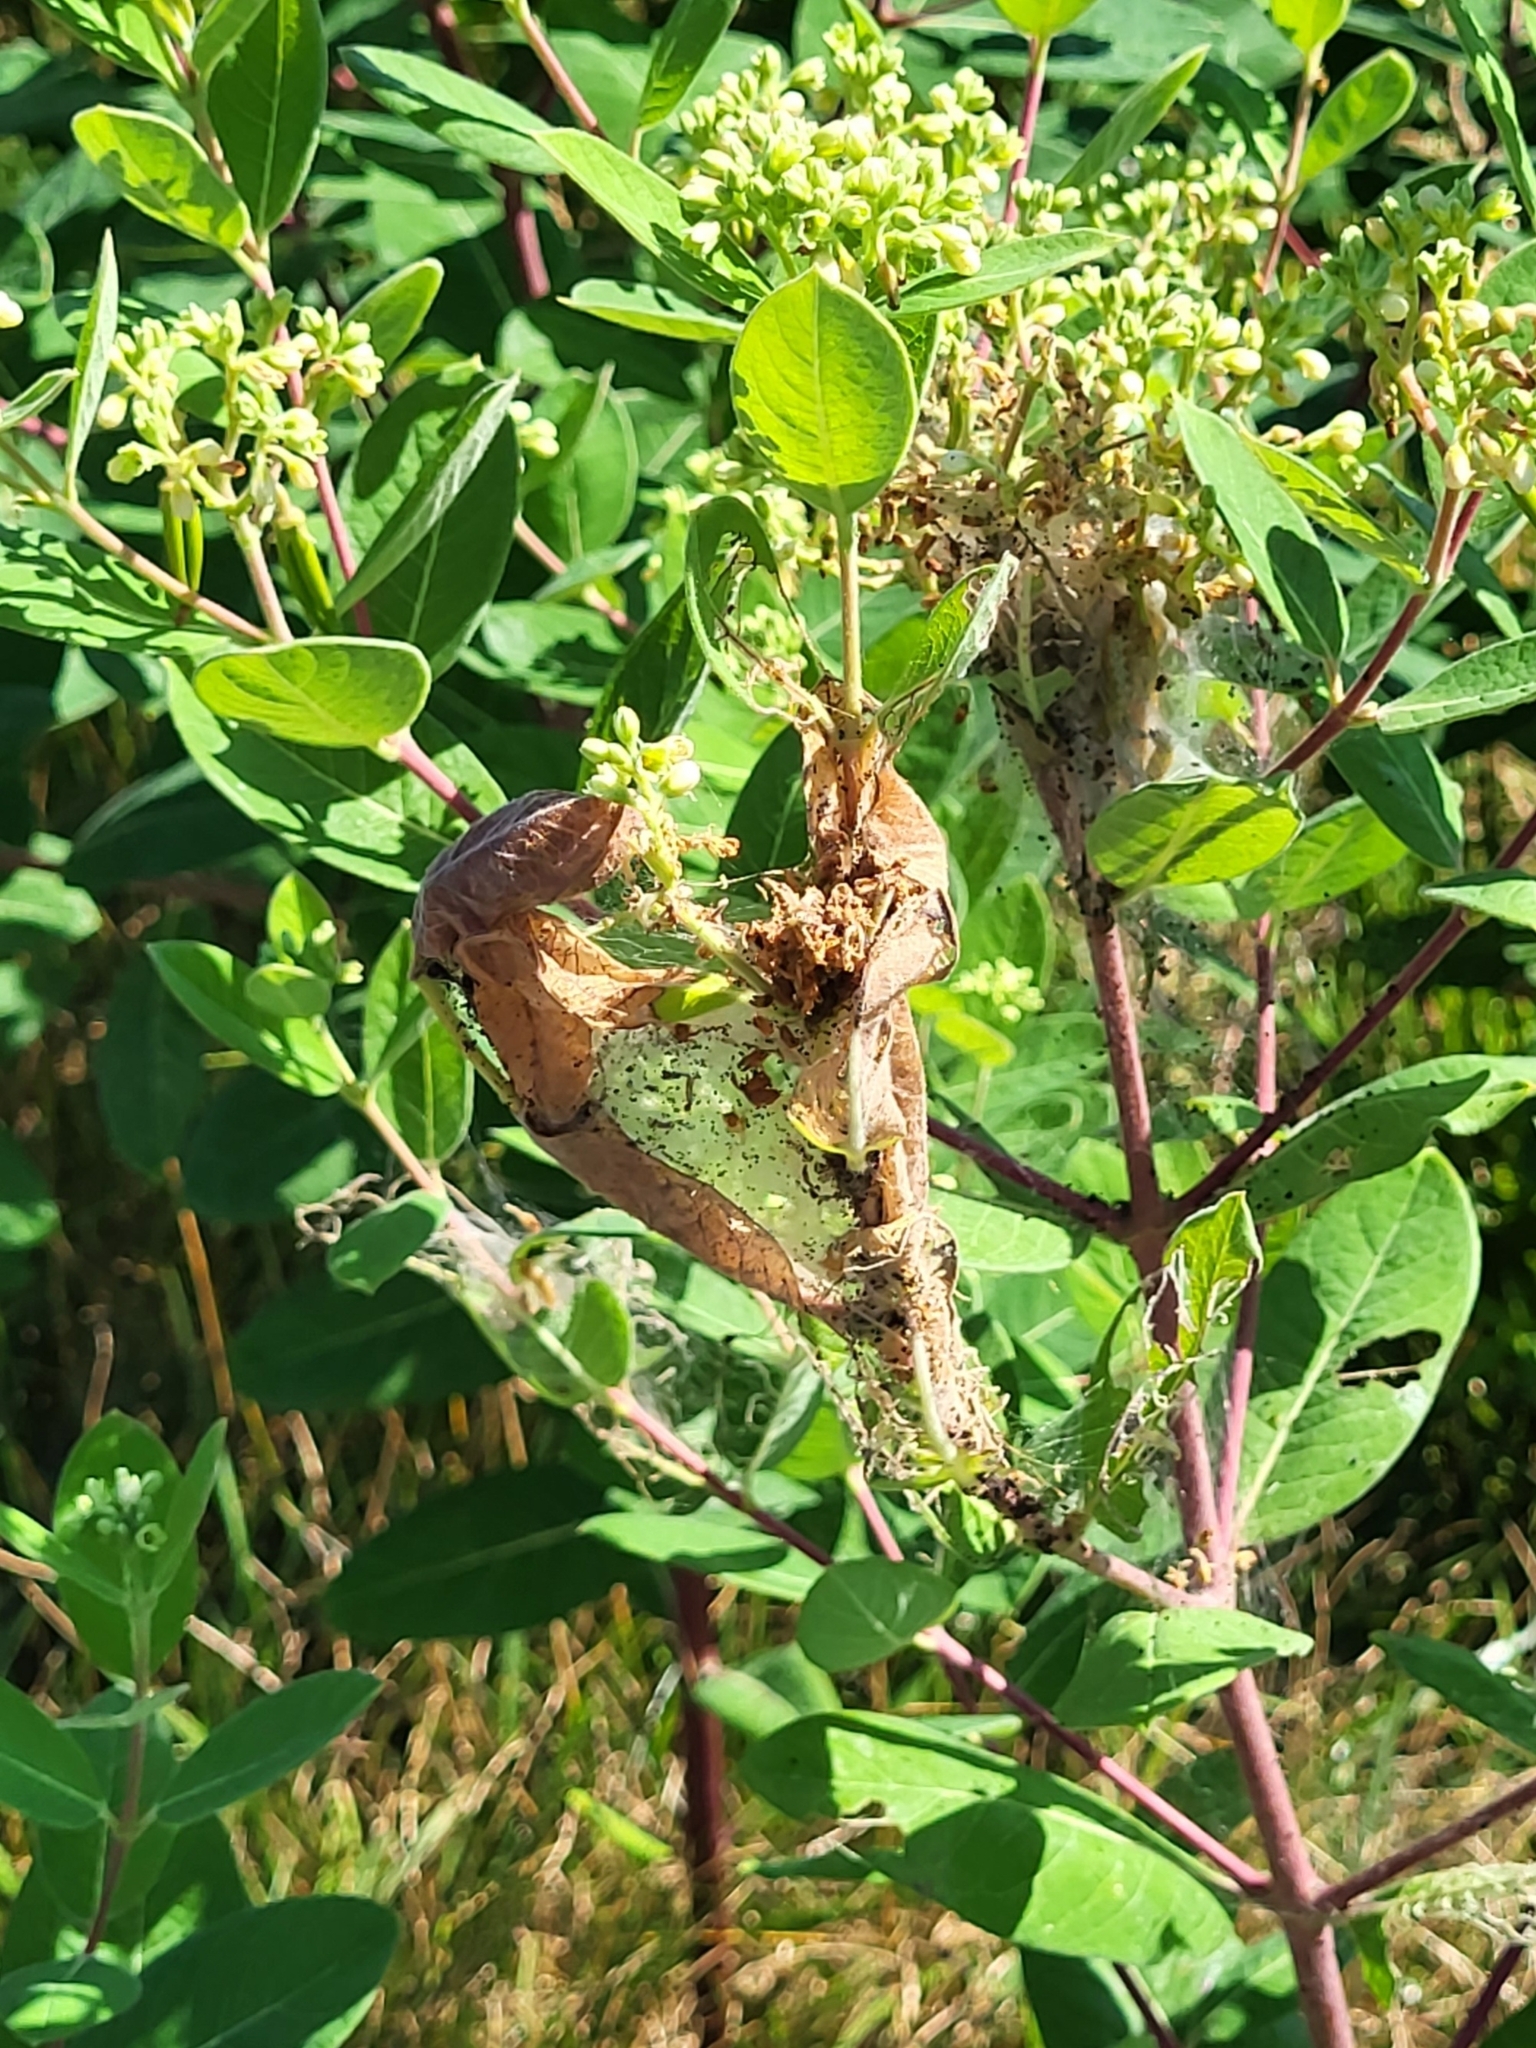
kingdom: Animalia
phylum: Arthropoda
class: Insecta
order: Lepidoptera
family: Crambidae
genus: Saucrobotys
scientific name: Saucrobotys futilalis
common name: Dogbane saucrobotys moth
